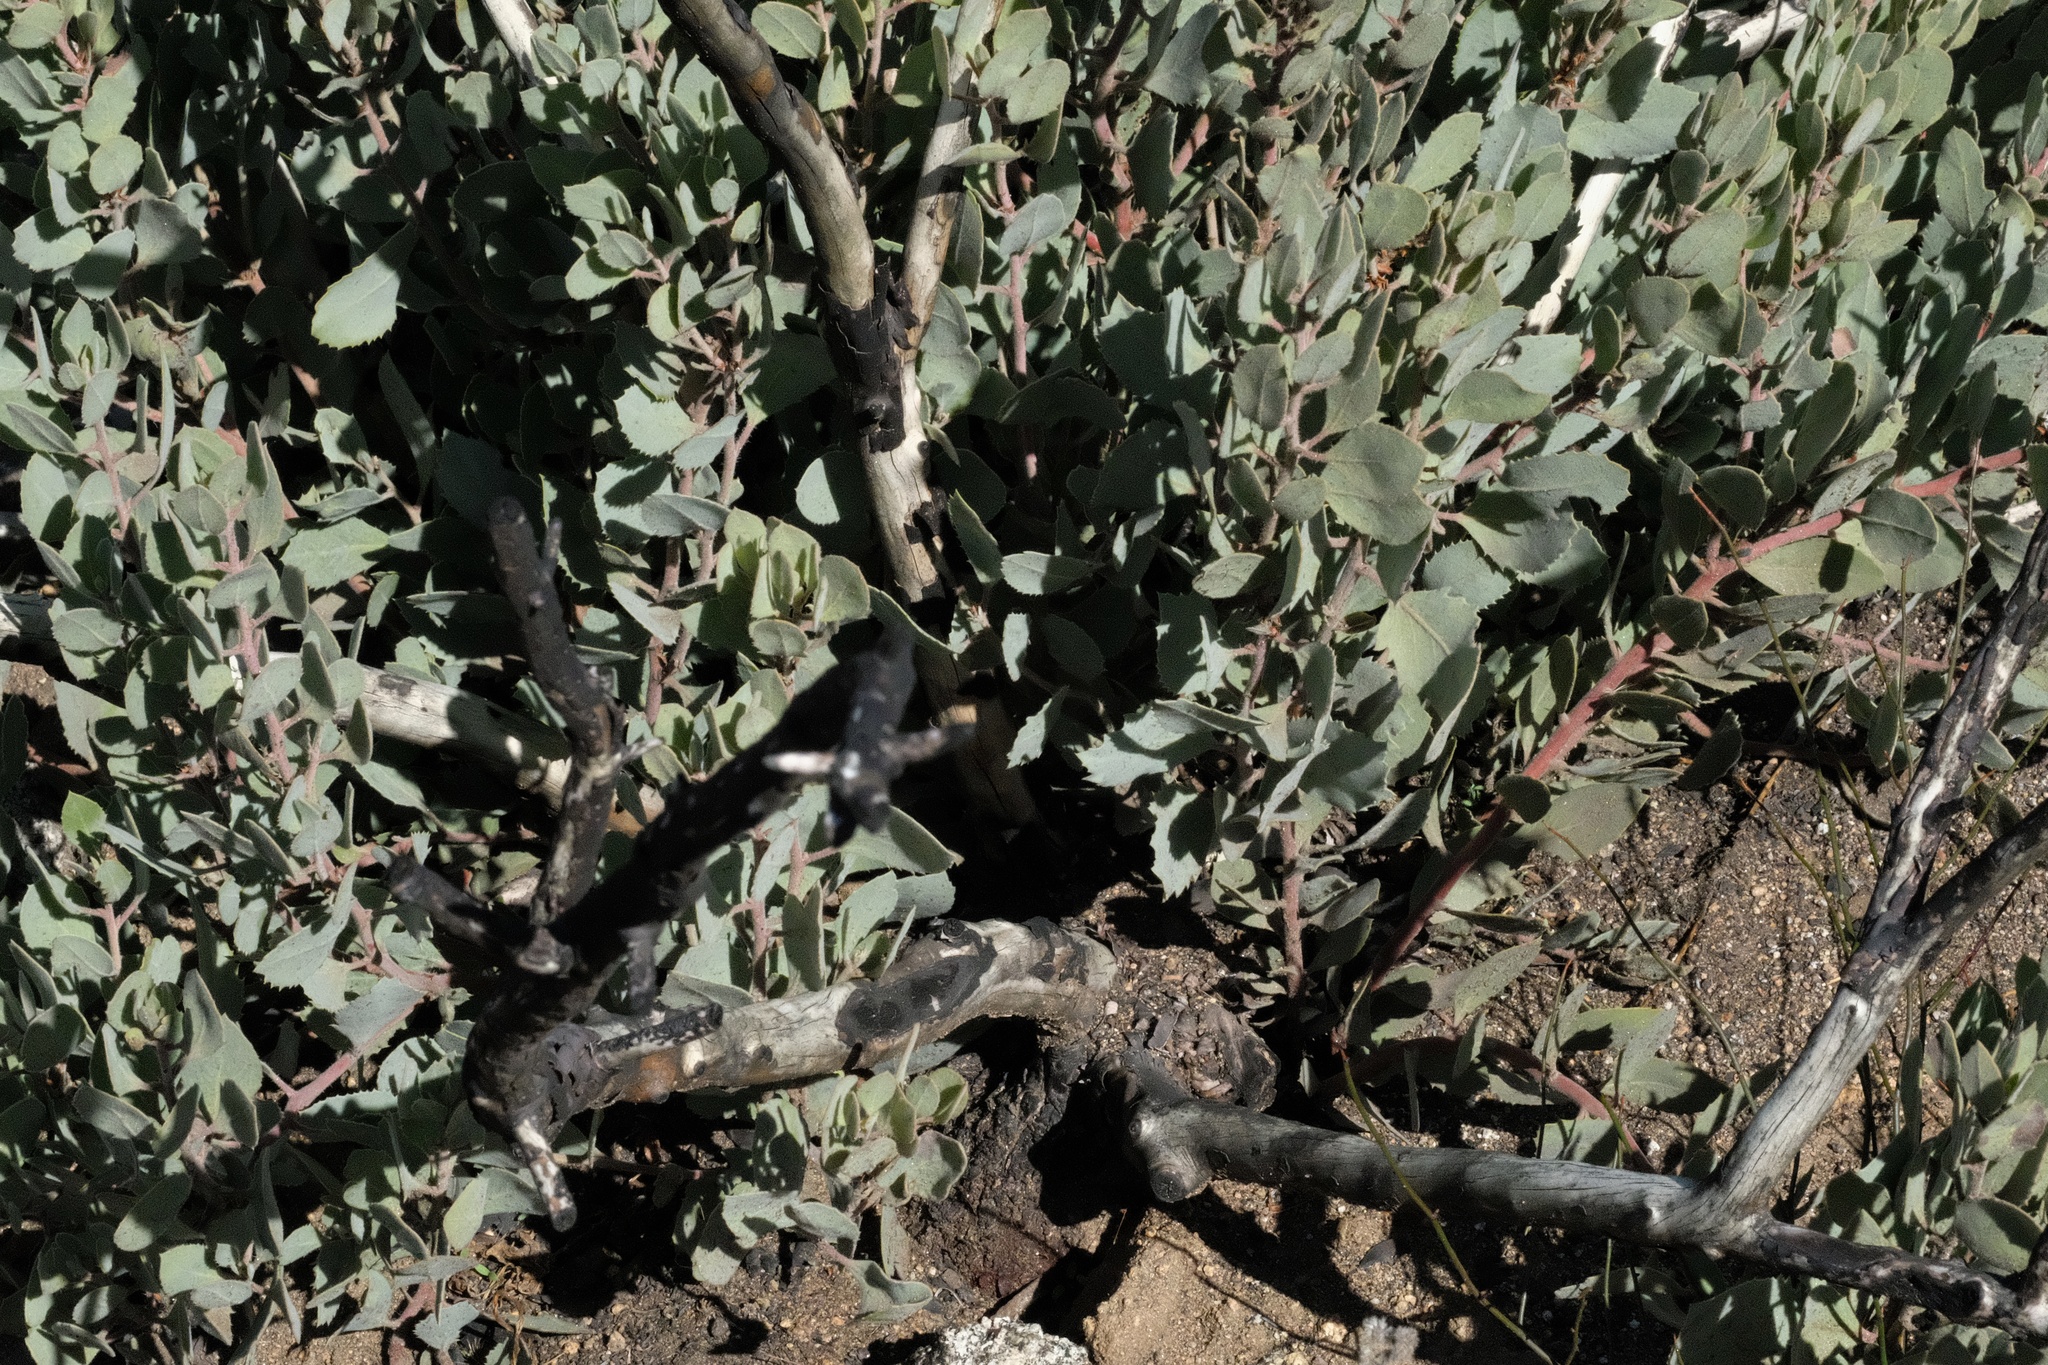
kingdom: Plantae
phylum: Tracheophyta
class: Magnoliopsida
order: Ericales
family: Ericaceae
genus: Arctostaphylos
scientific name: Arctostaphylos glandulosa
